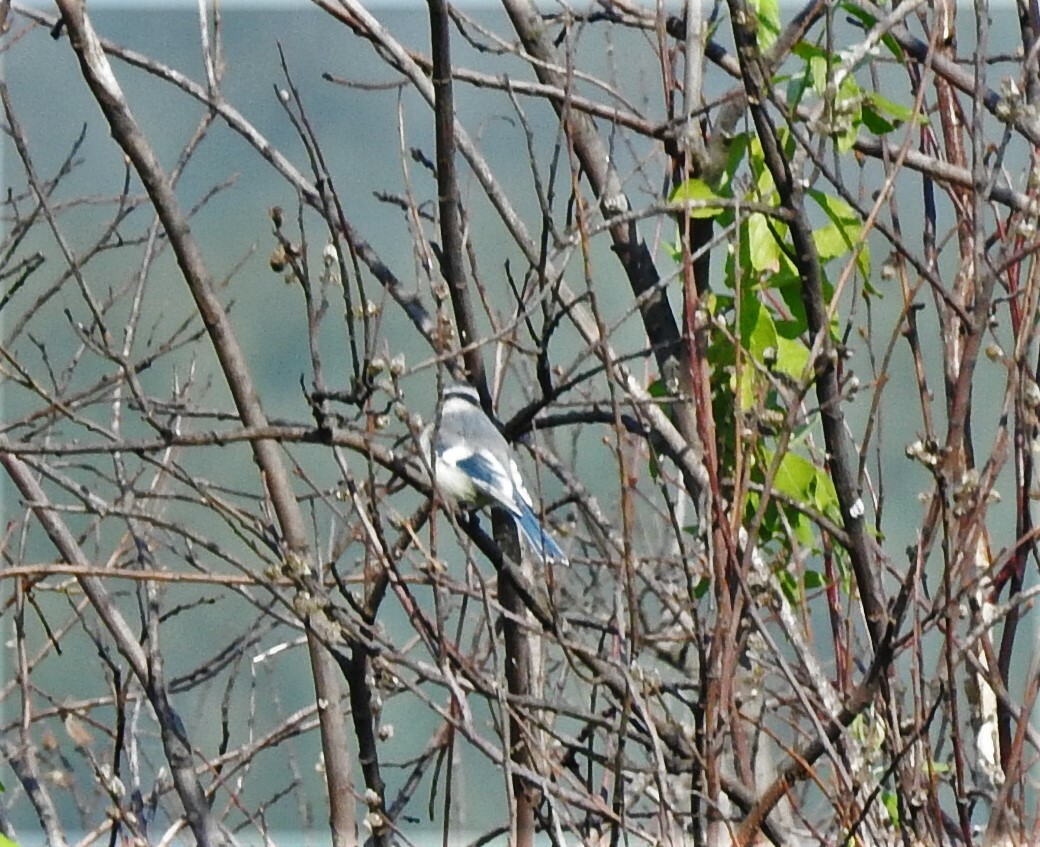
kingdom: Animalia
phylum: Chordata
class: Aves
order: Passeriformes
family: Paridae
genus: Cyanistes
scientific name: Cyanistes cyanus
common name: Azure tit
